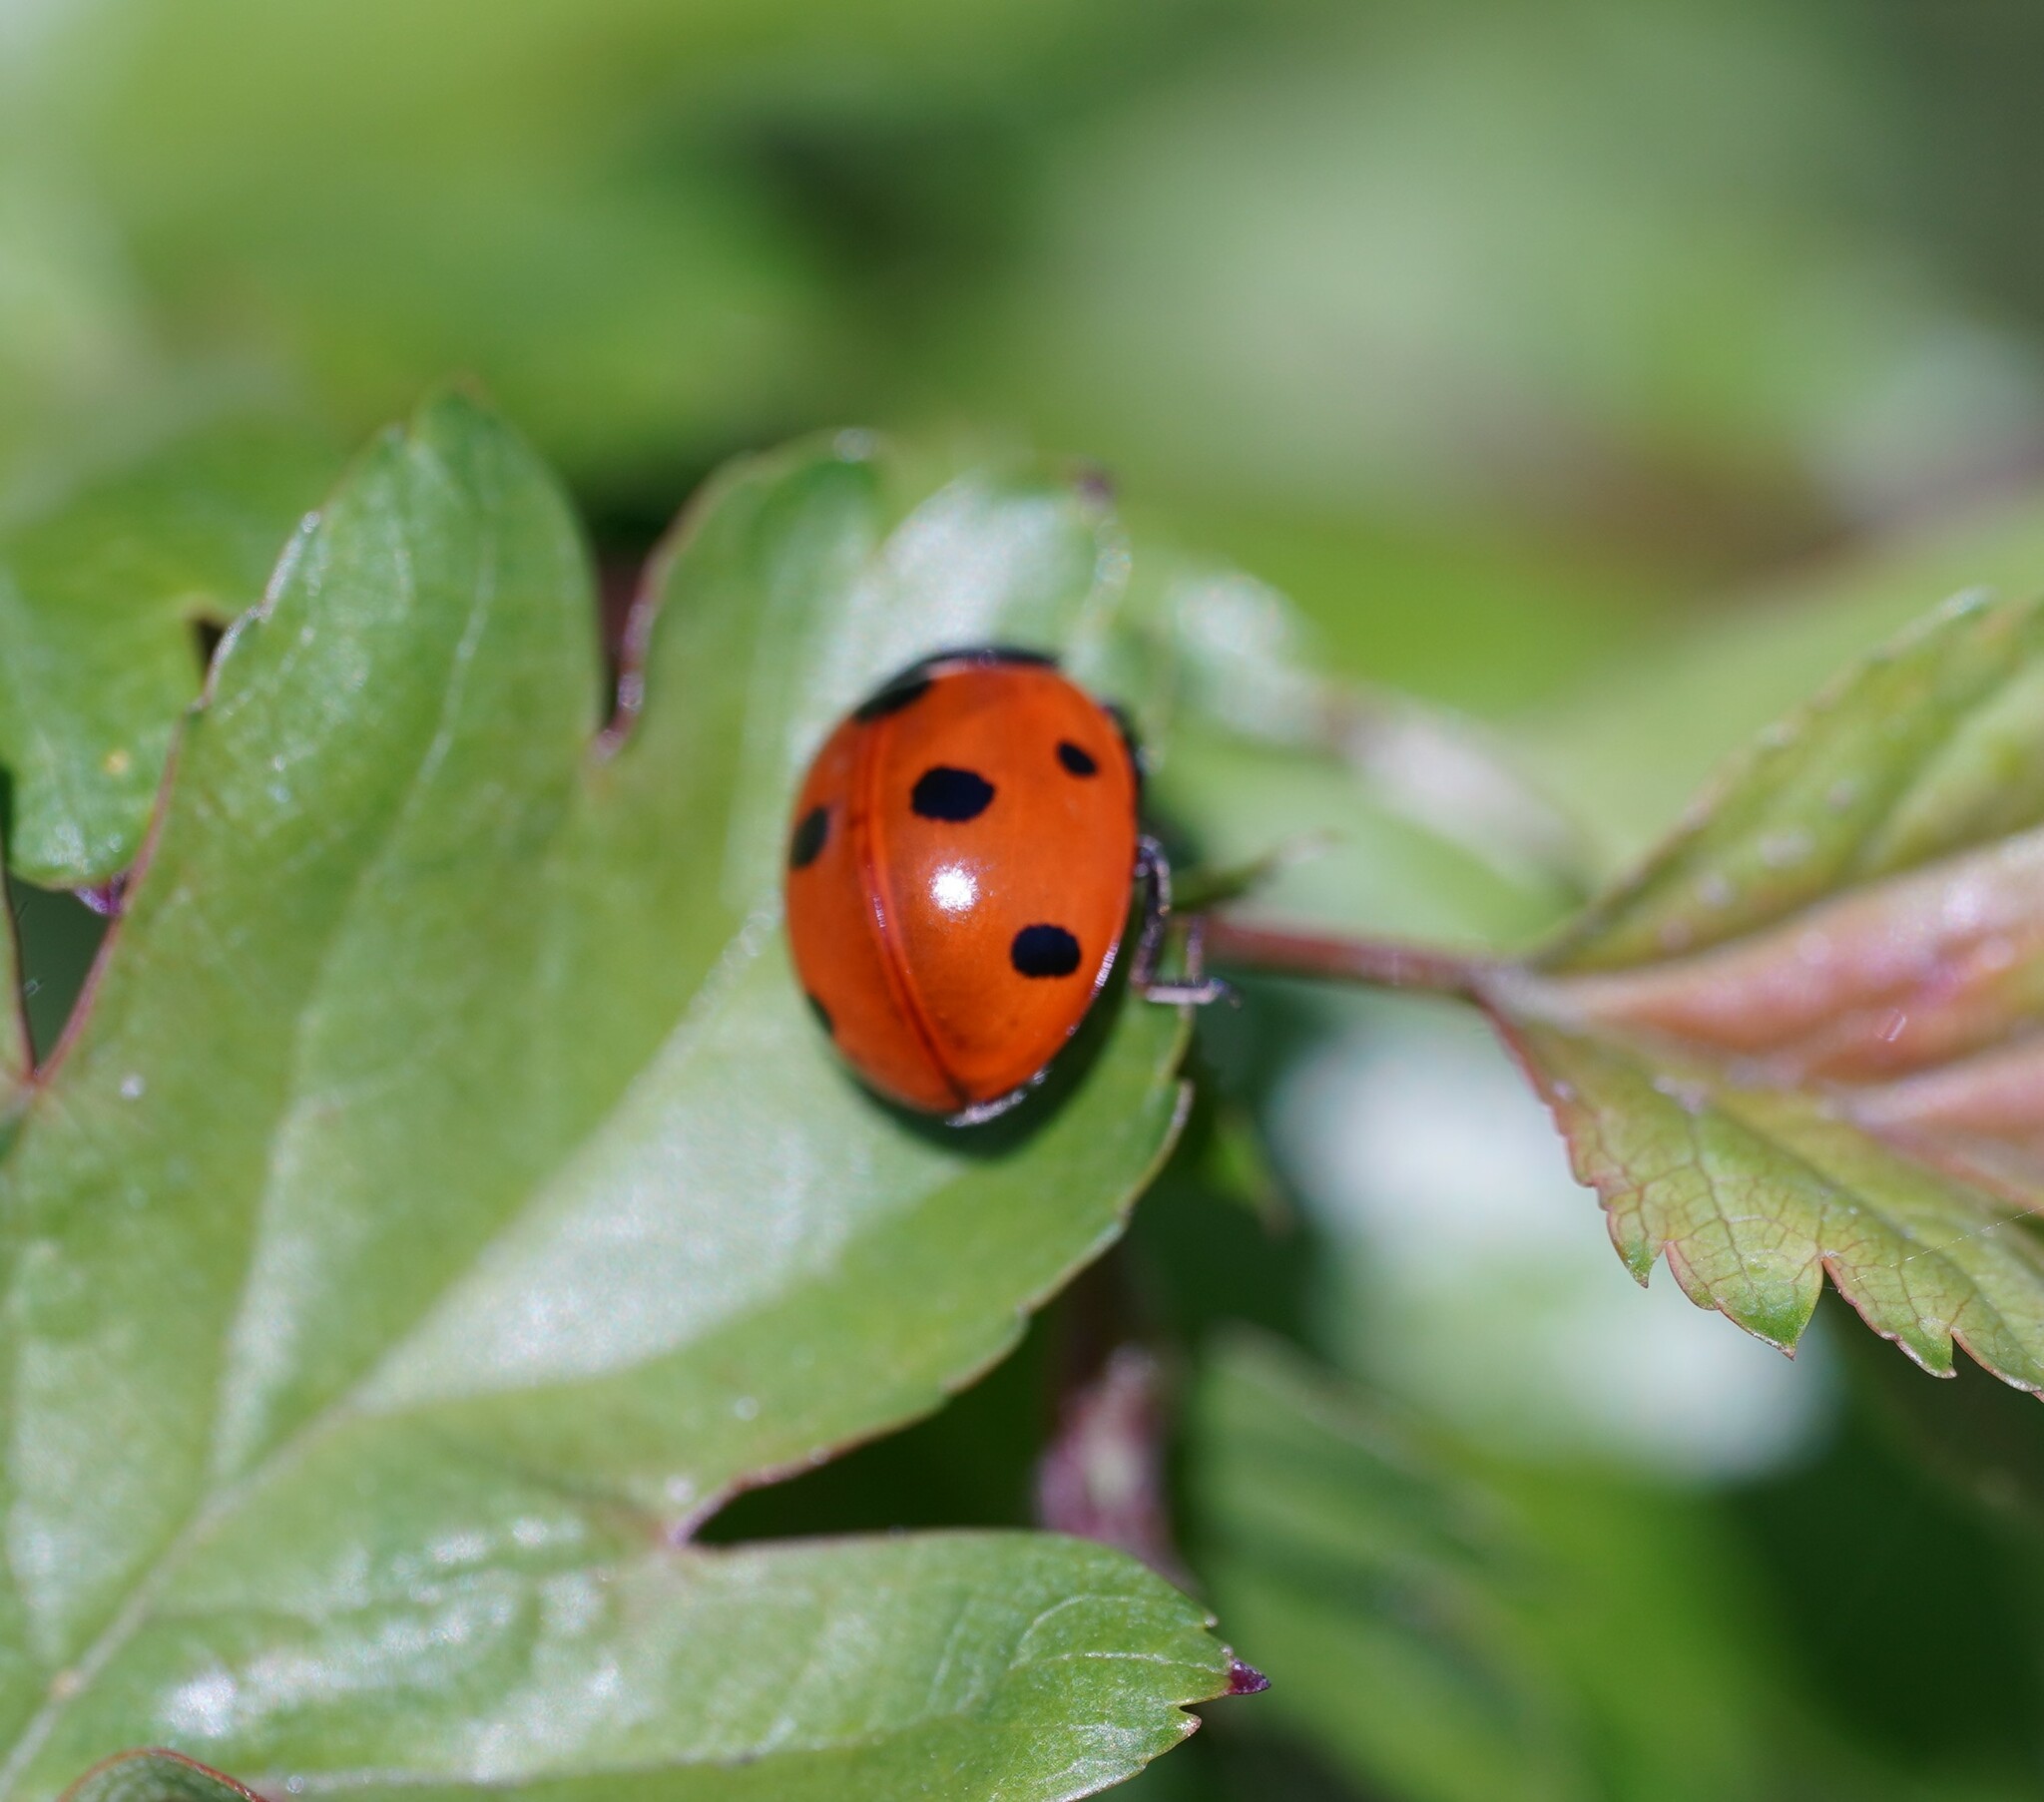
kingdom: Animalia
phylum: Arthropoda
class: Insecta
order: Coleoptera
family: Coccinellidae
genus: Coccinella
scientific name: Coccinella septempunctata
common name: Sevenspotted lady beetle
